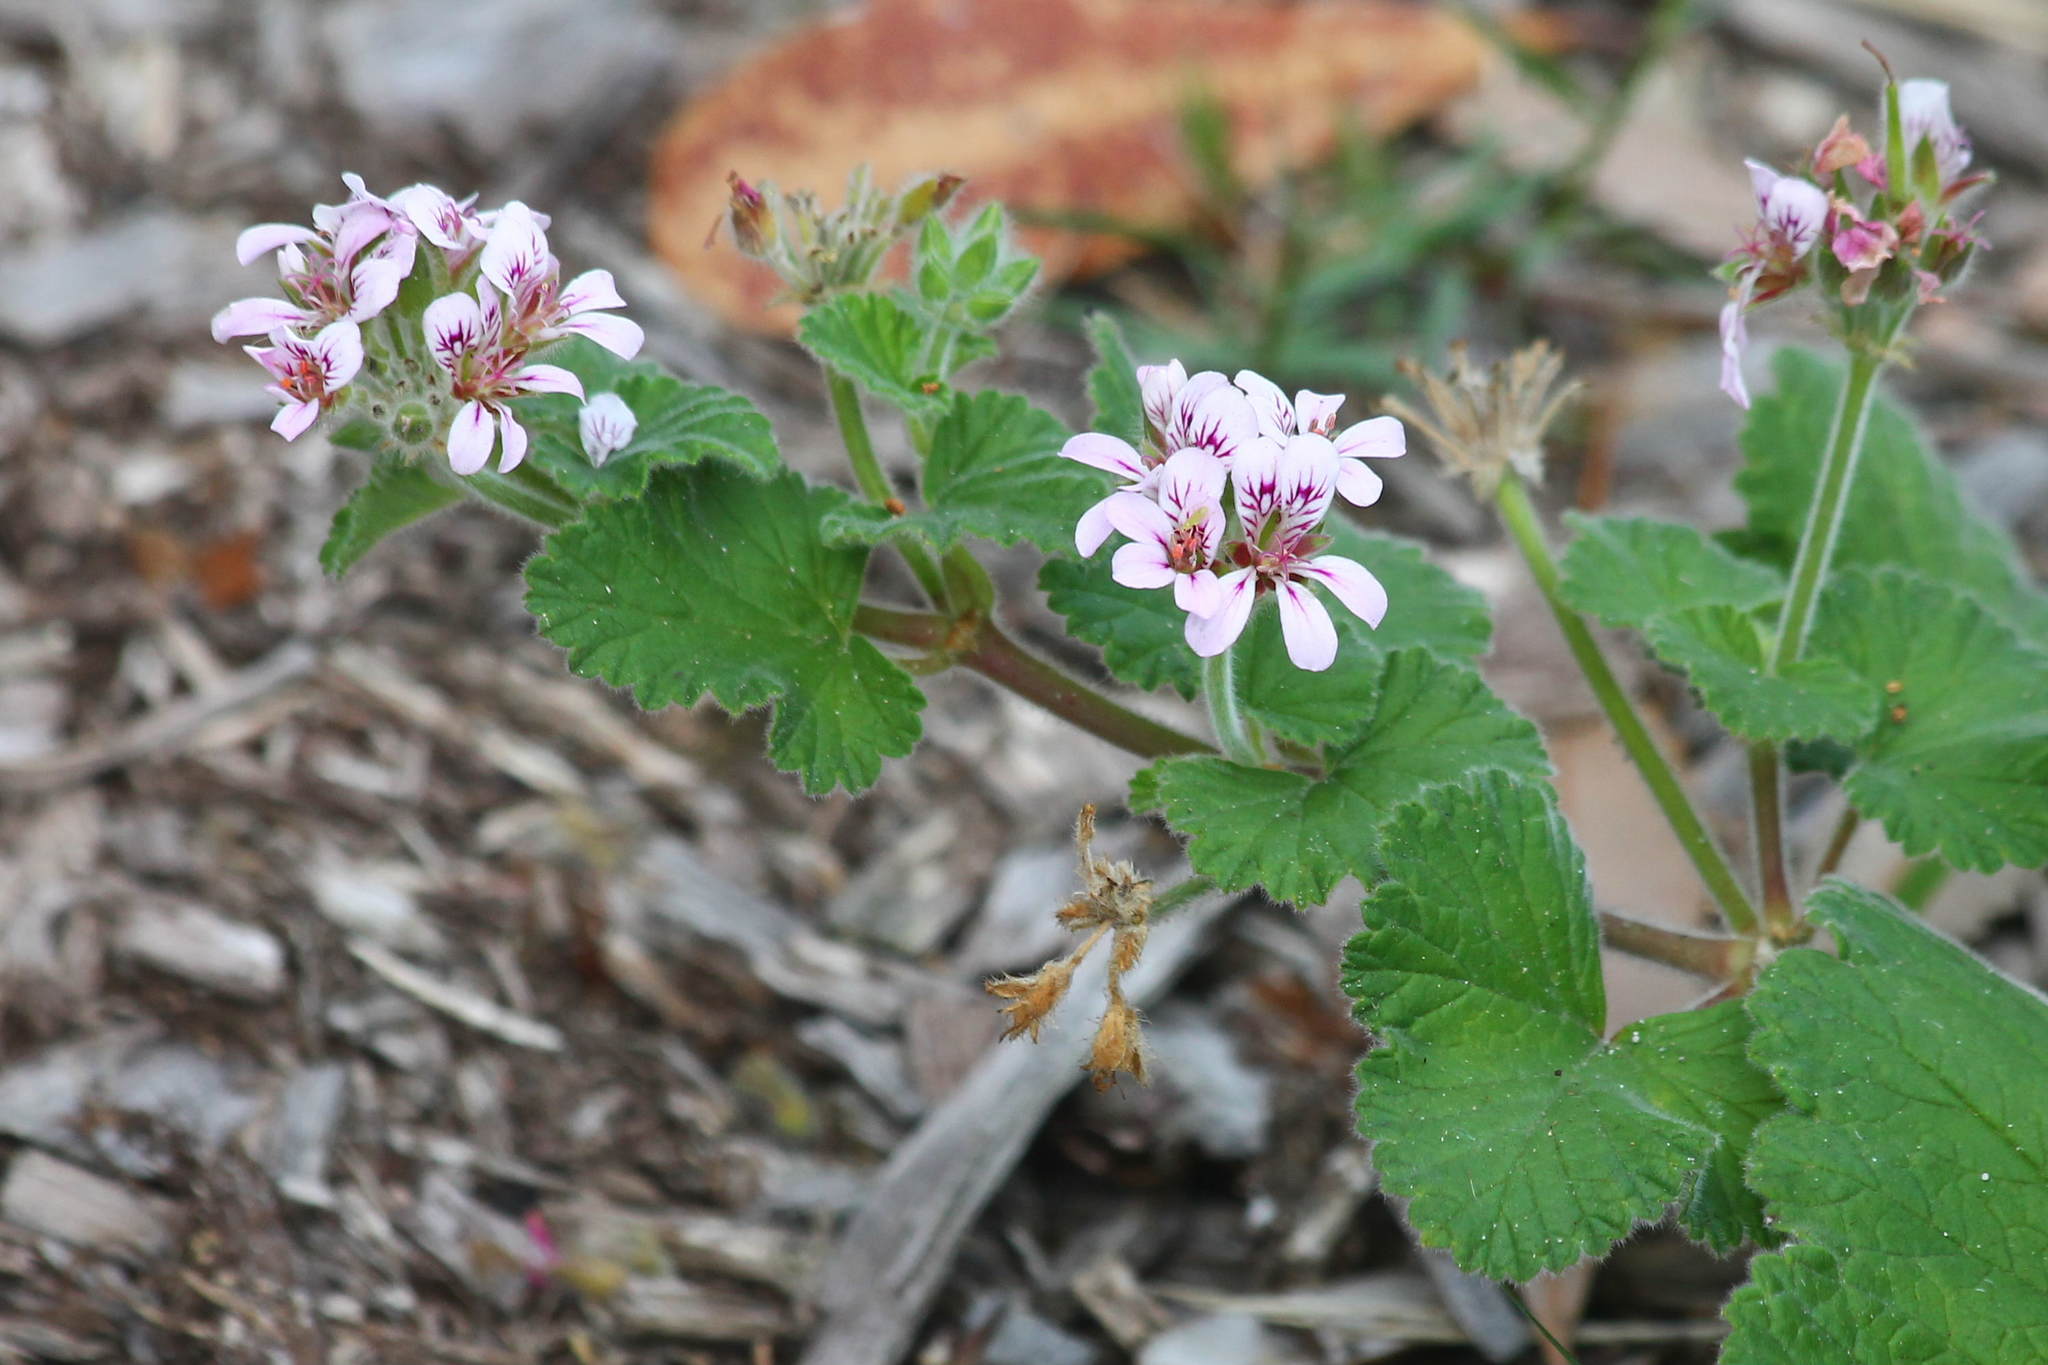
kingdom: Plantae
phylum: Tracheophyta
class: Magnoliopsida
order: Geraniales
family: Geraniaceae
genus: Pelargonium
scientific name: Pelargonium inodorum
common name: Kopata geranium
